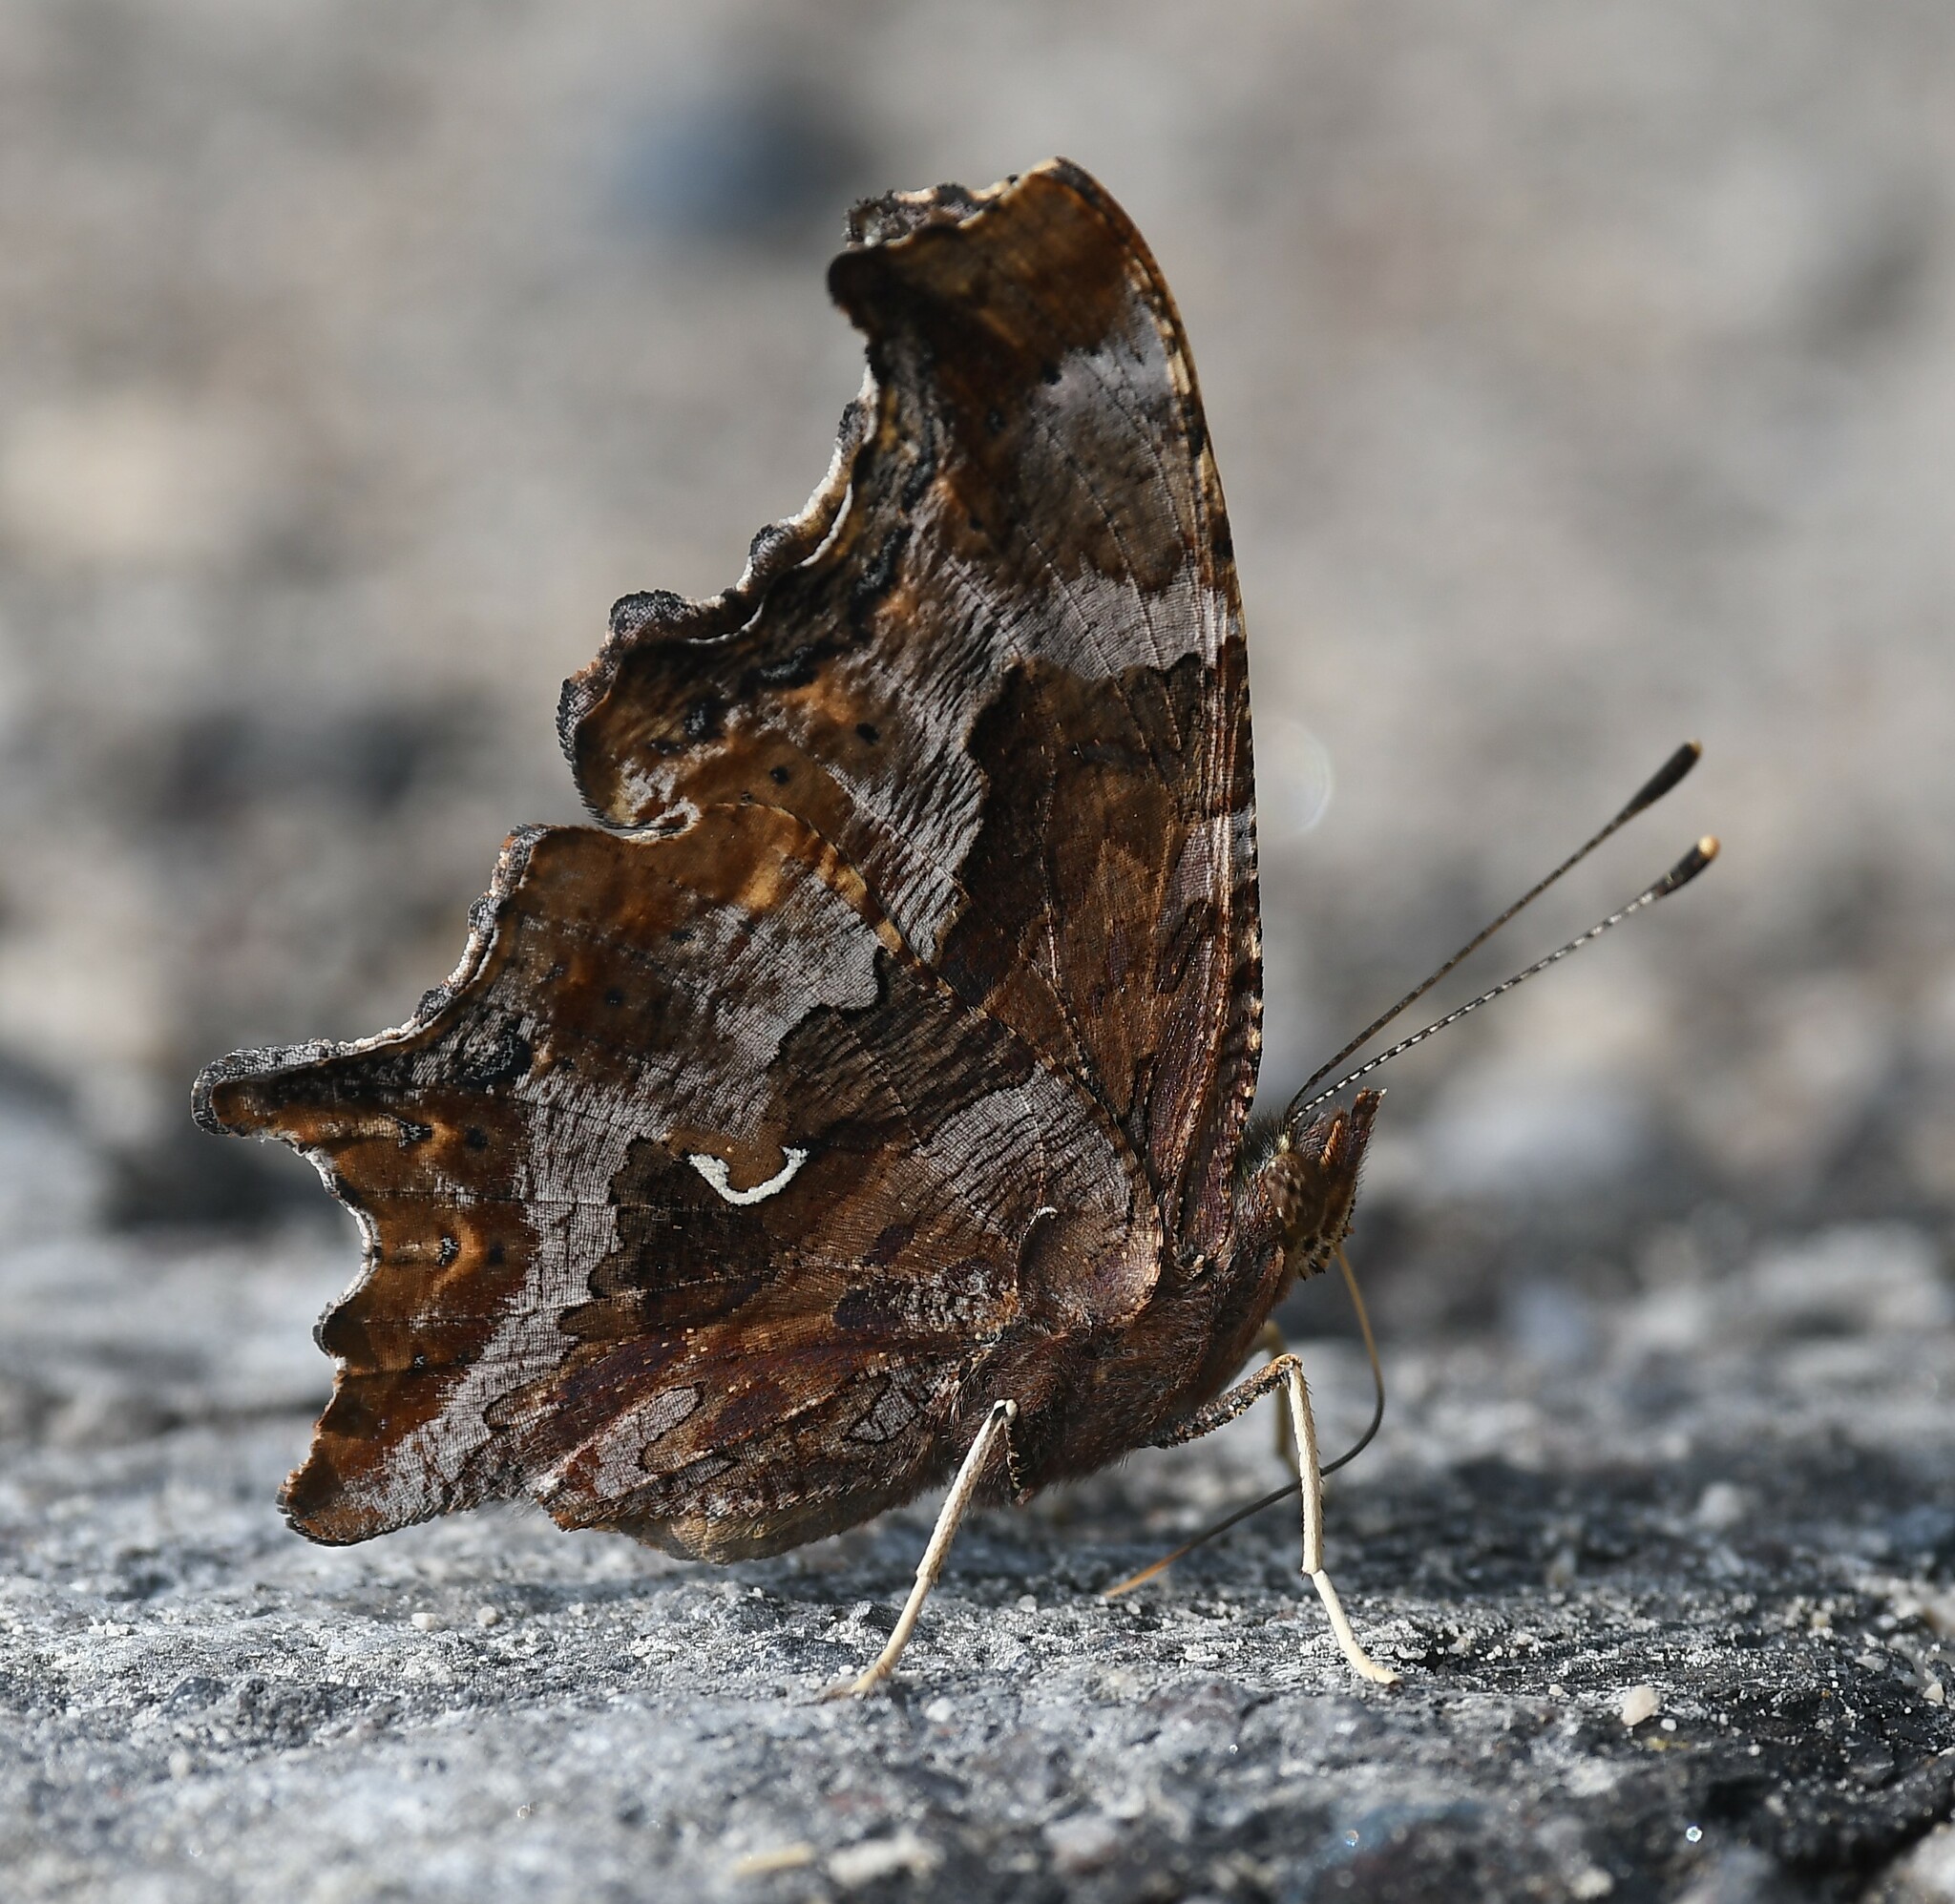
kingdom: Animalia
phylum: Arthropoda
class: Insecta
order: Lepidoptera
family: Nymphalidae
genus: Polygonia
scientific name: Polygonia comma
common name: Eastern comma
